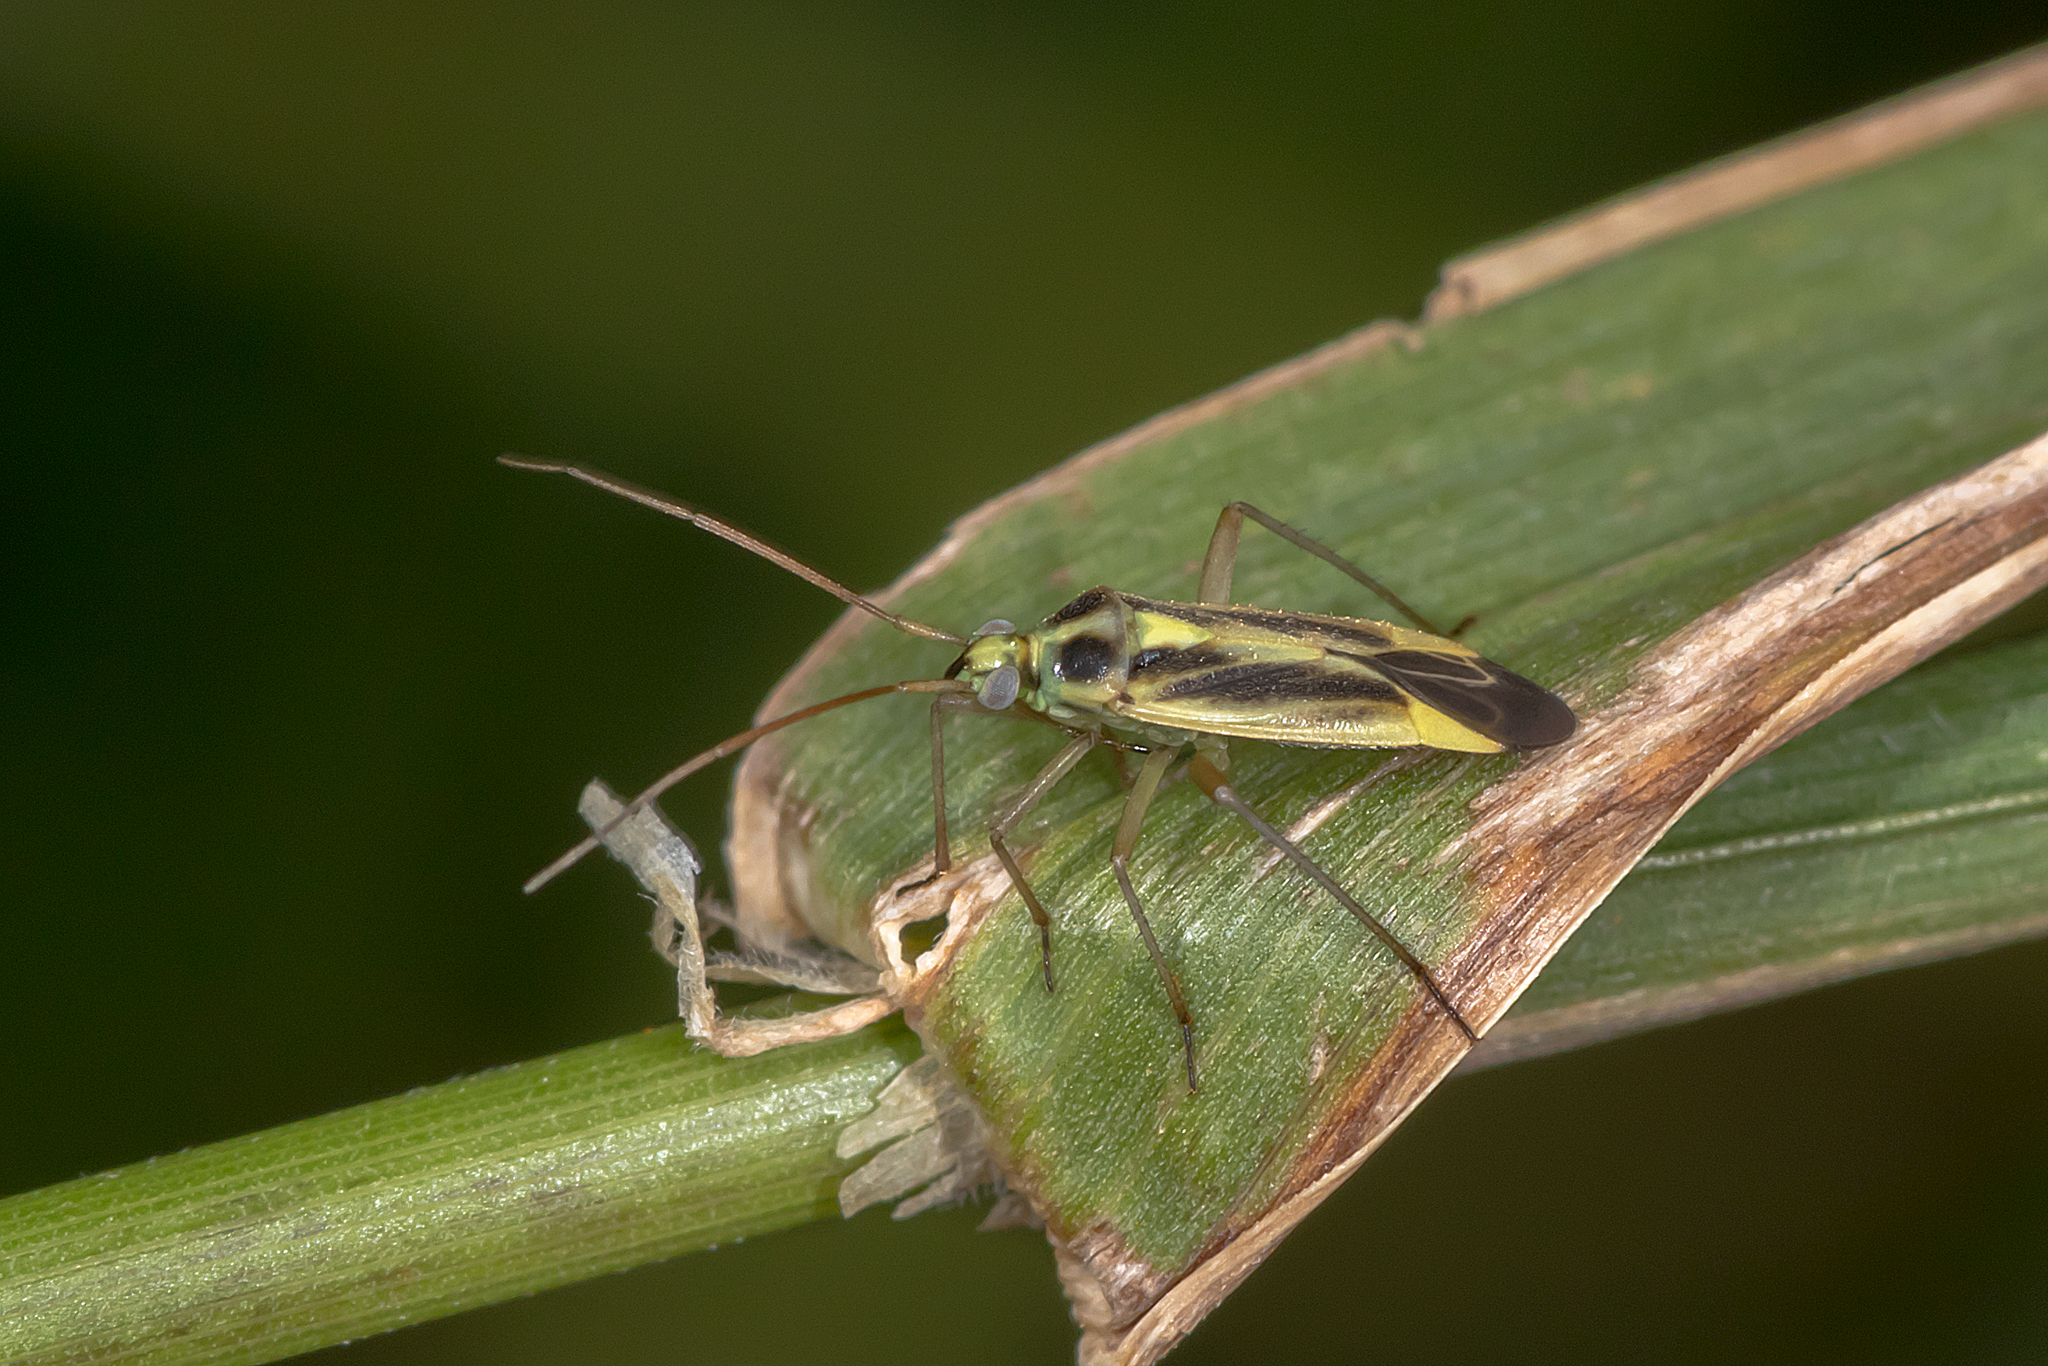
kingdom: Animalia
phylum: Arthropoda
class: Insecta
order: Hemiptera
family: Miridae
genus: Stenotus
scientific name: Stenotus binotatus
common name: Plant bug
